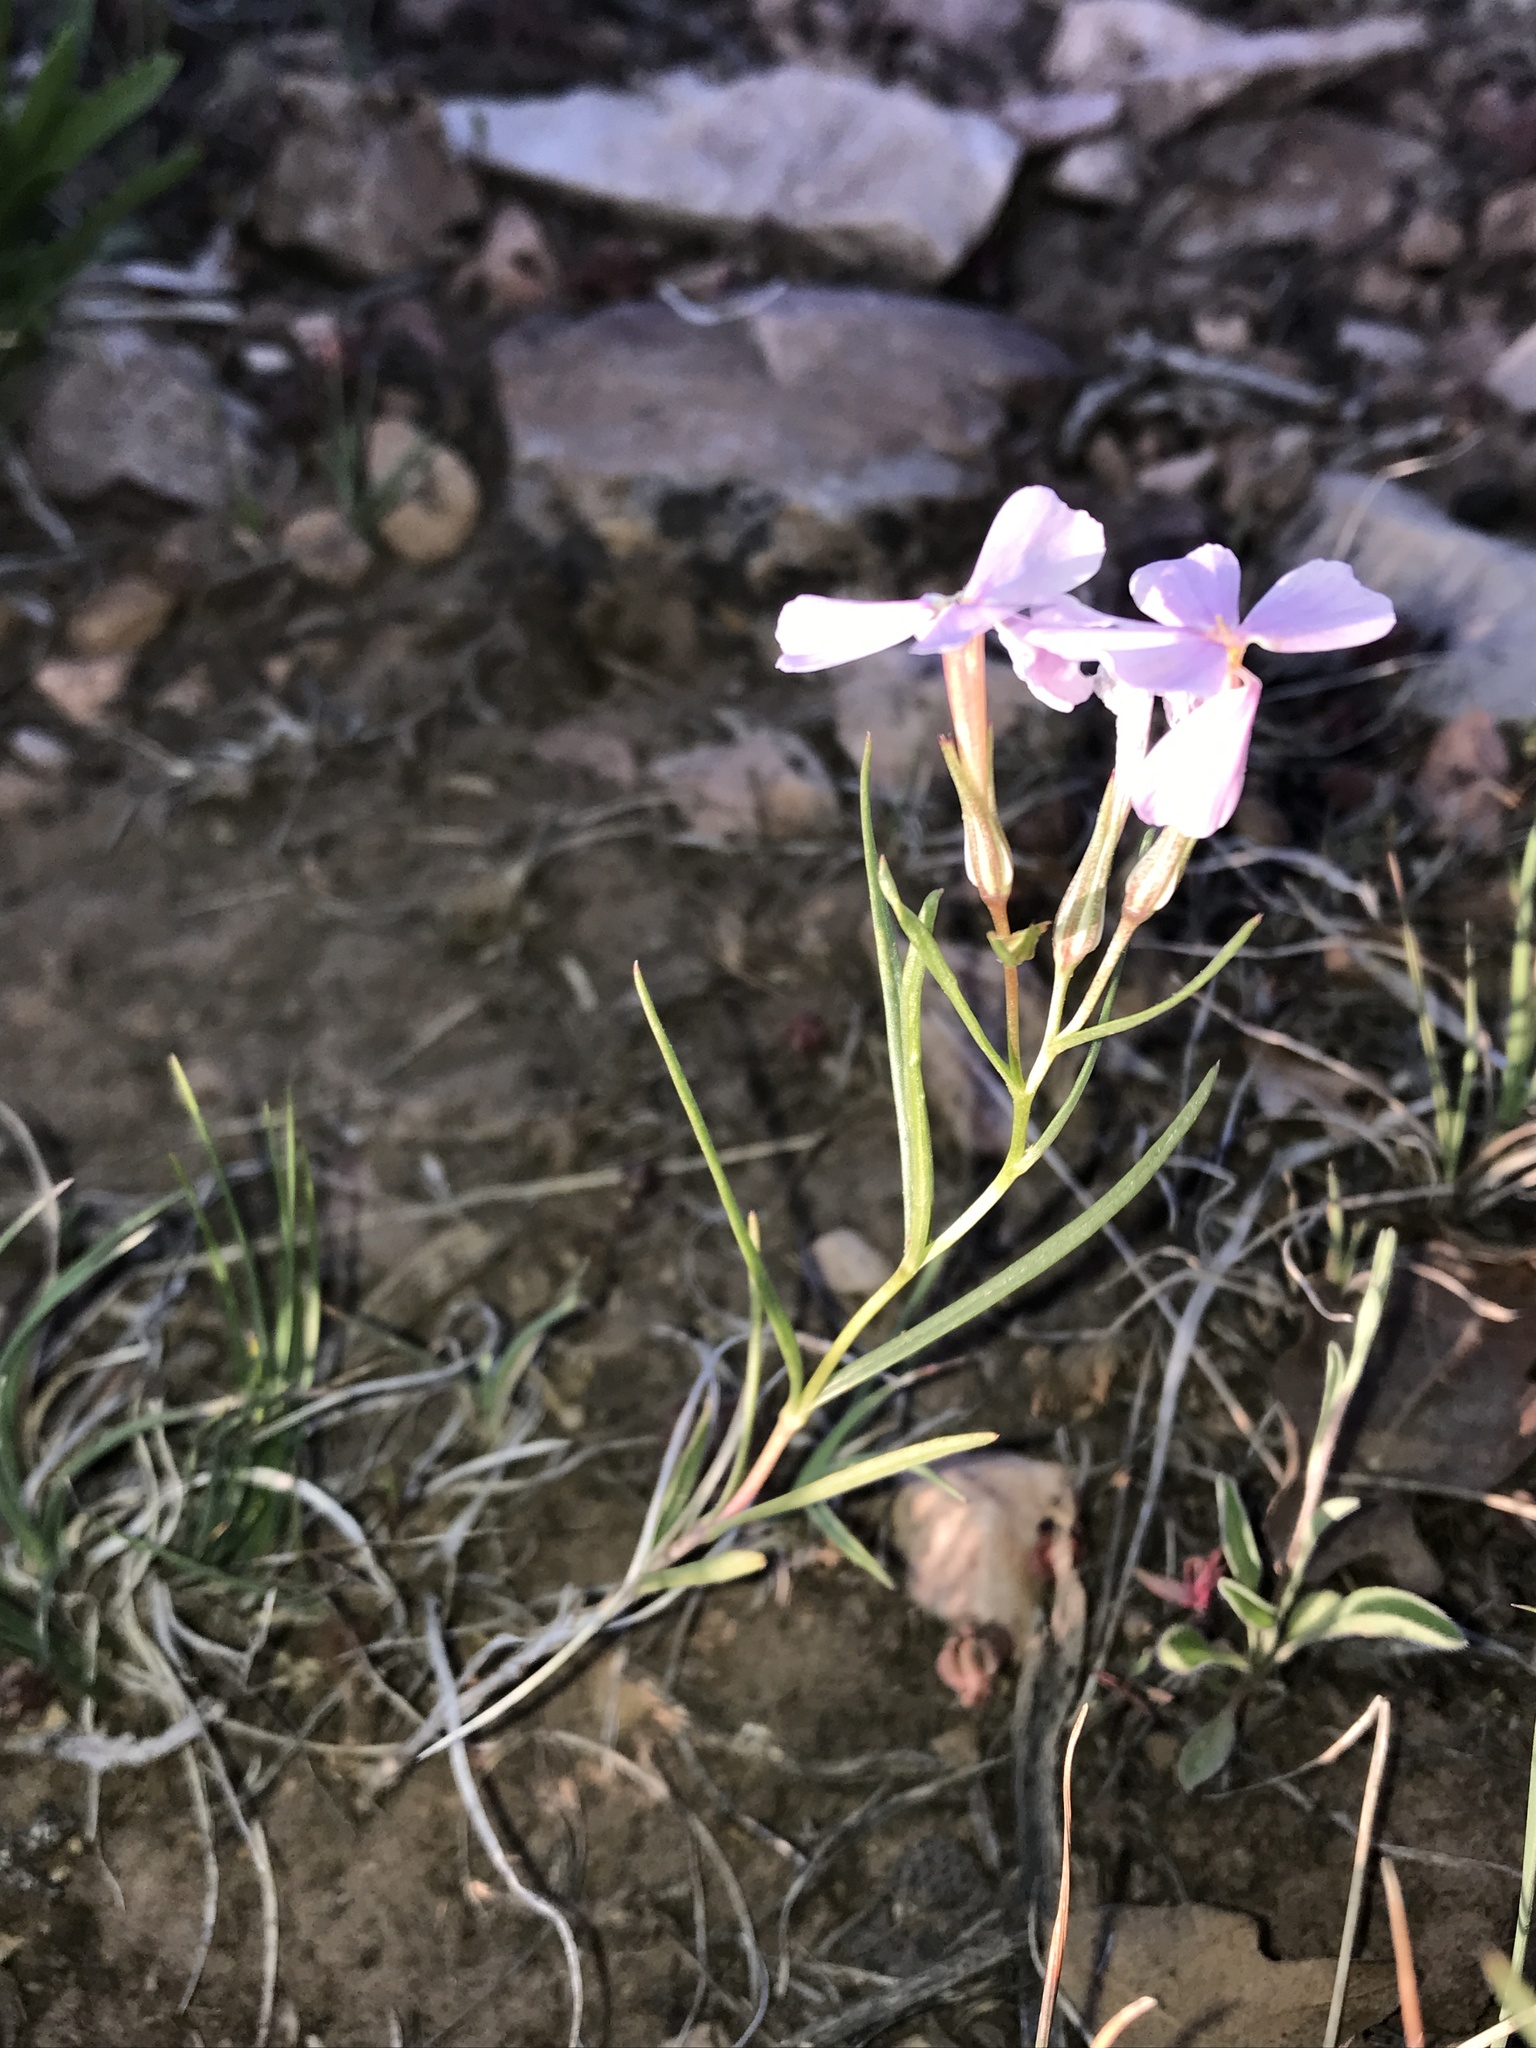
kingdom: Plantae
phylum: Tracheophyta
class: Magnoliopsida
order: Ericales
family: Polemoniaceae
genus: Phlox
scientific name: Phlox longifolia
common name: Longleaf phlox
